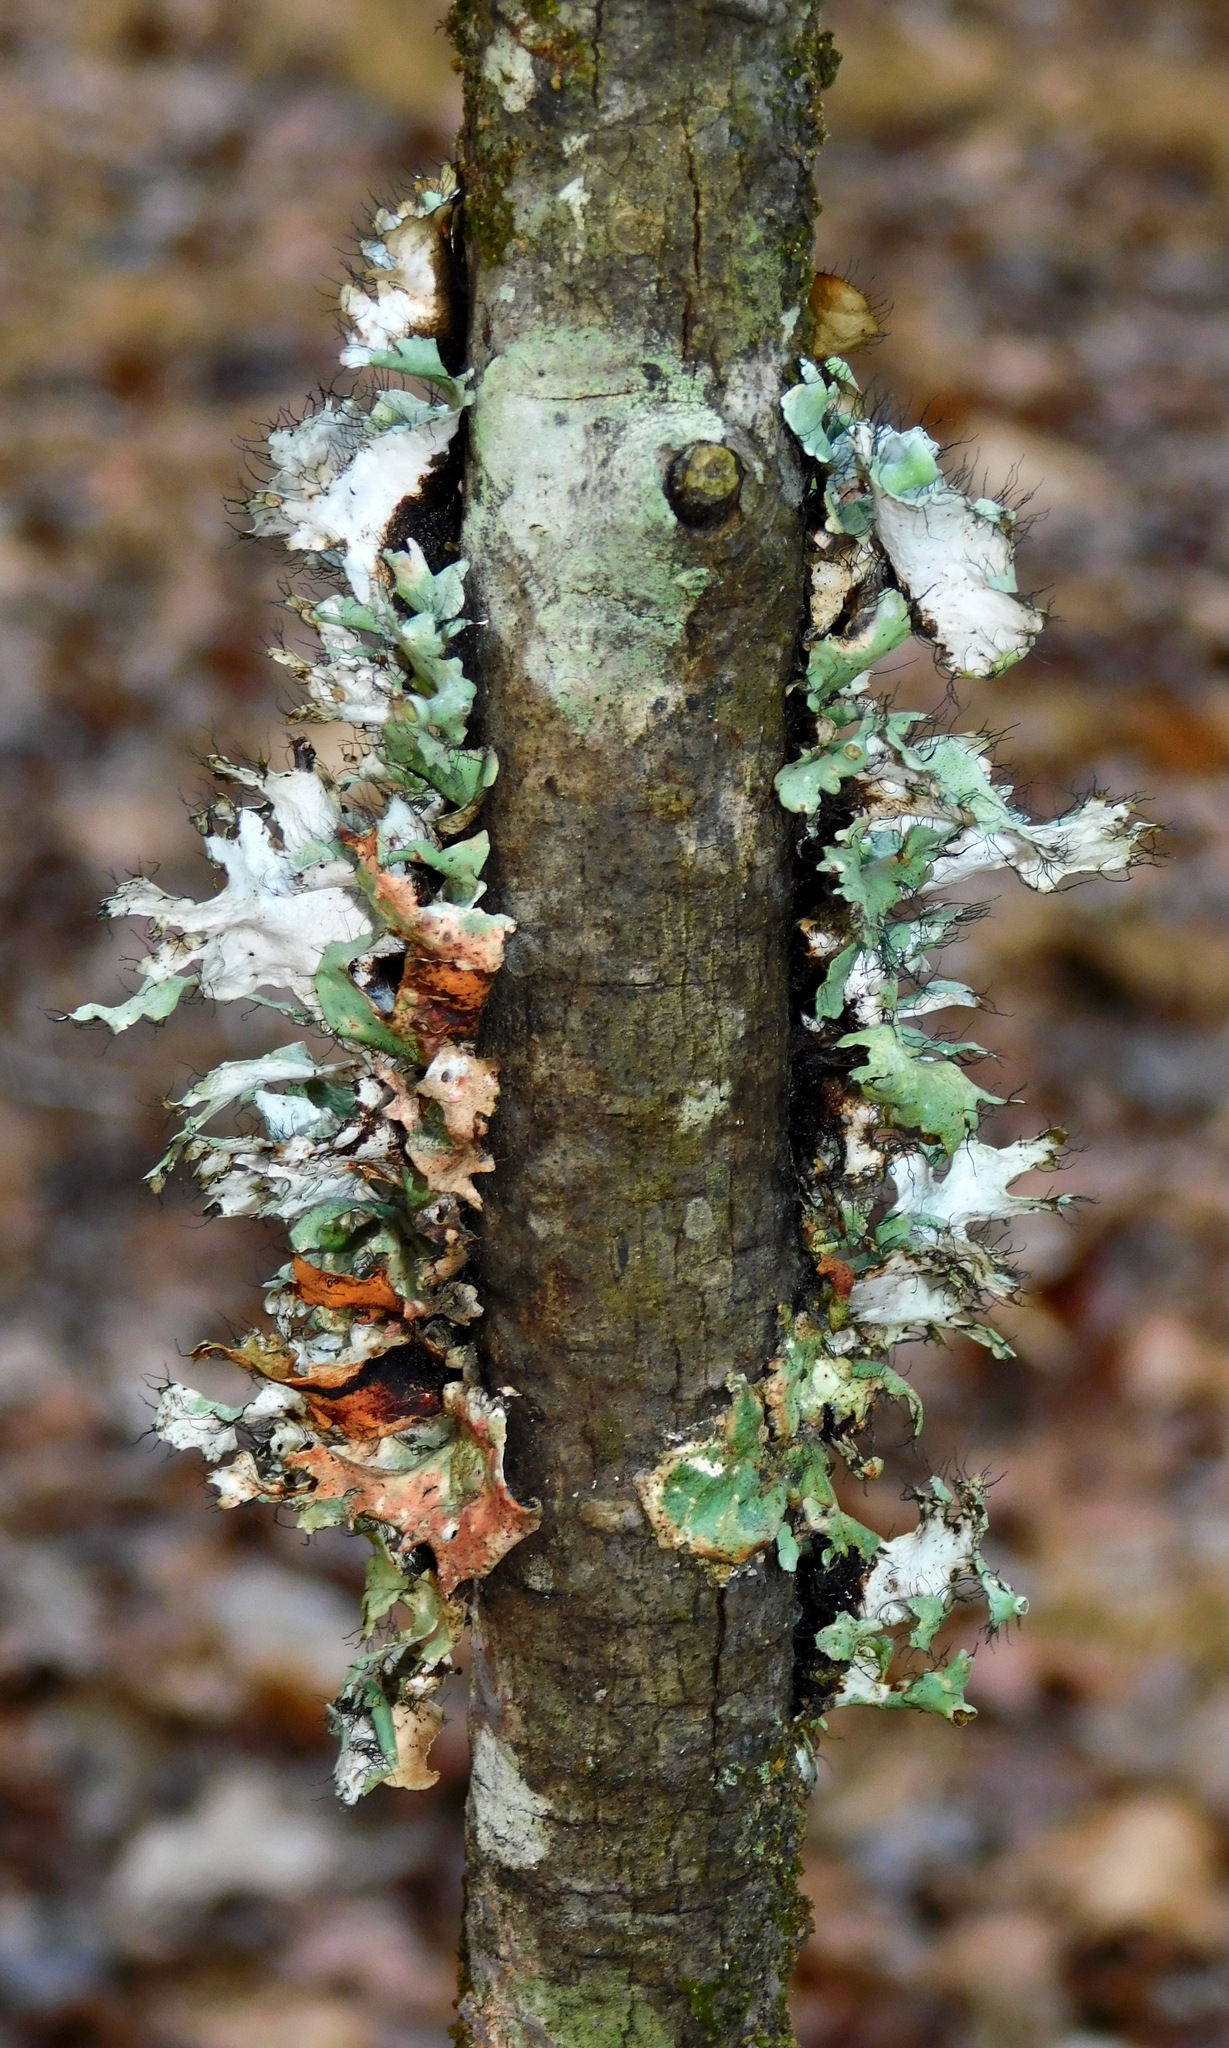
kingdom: Fungi
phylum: Ascomycota
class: Lecanoromycetes
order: Lecanorales
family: Parmeliaceae
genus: Parmotrema
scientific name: Parmotrema subrigidum
